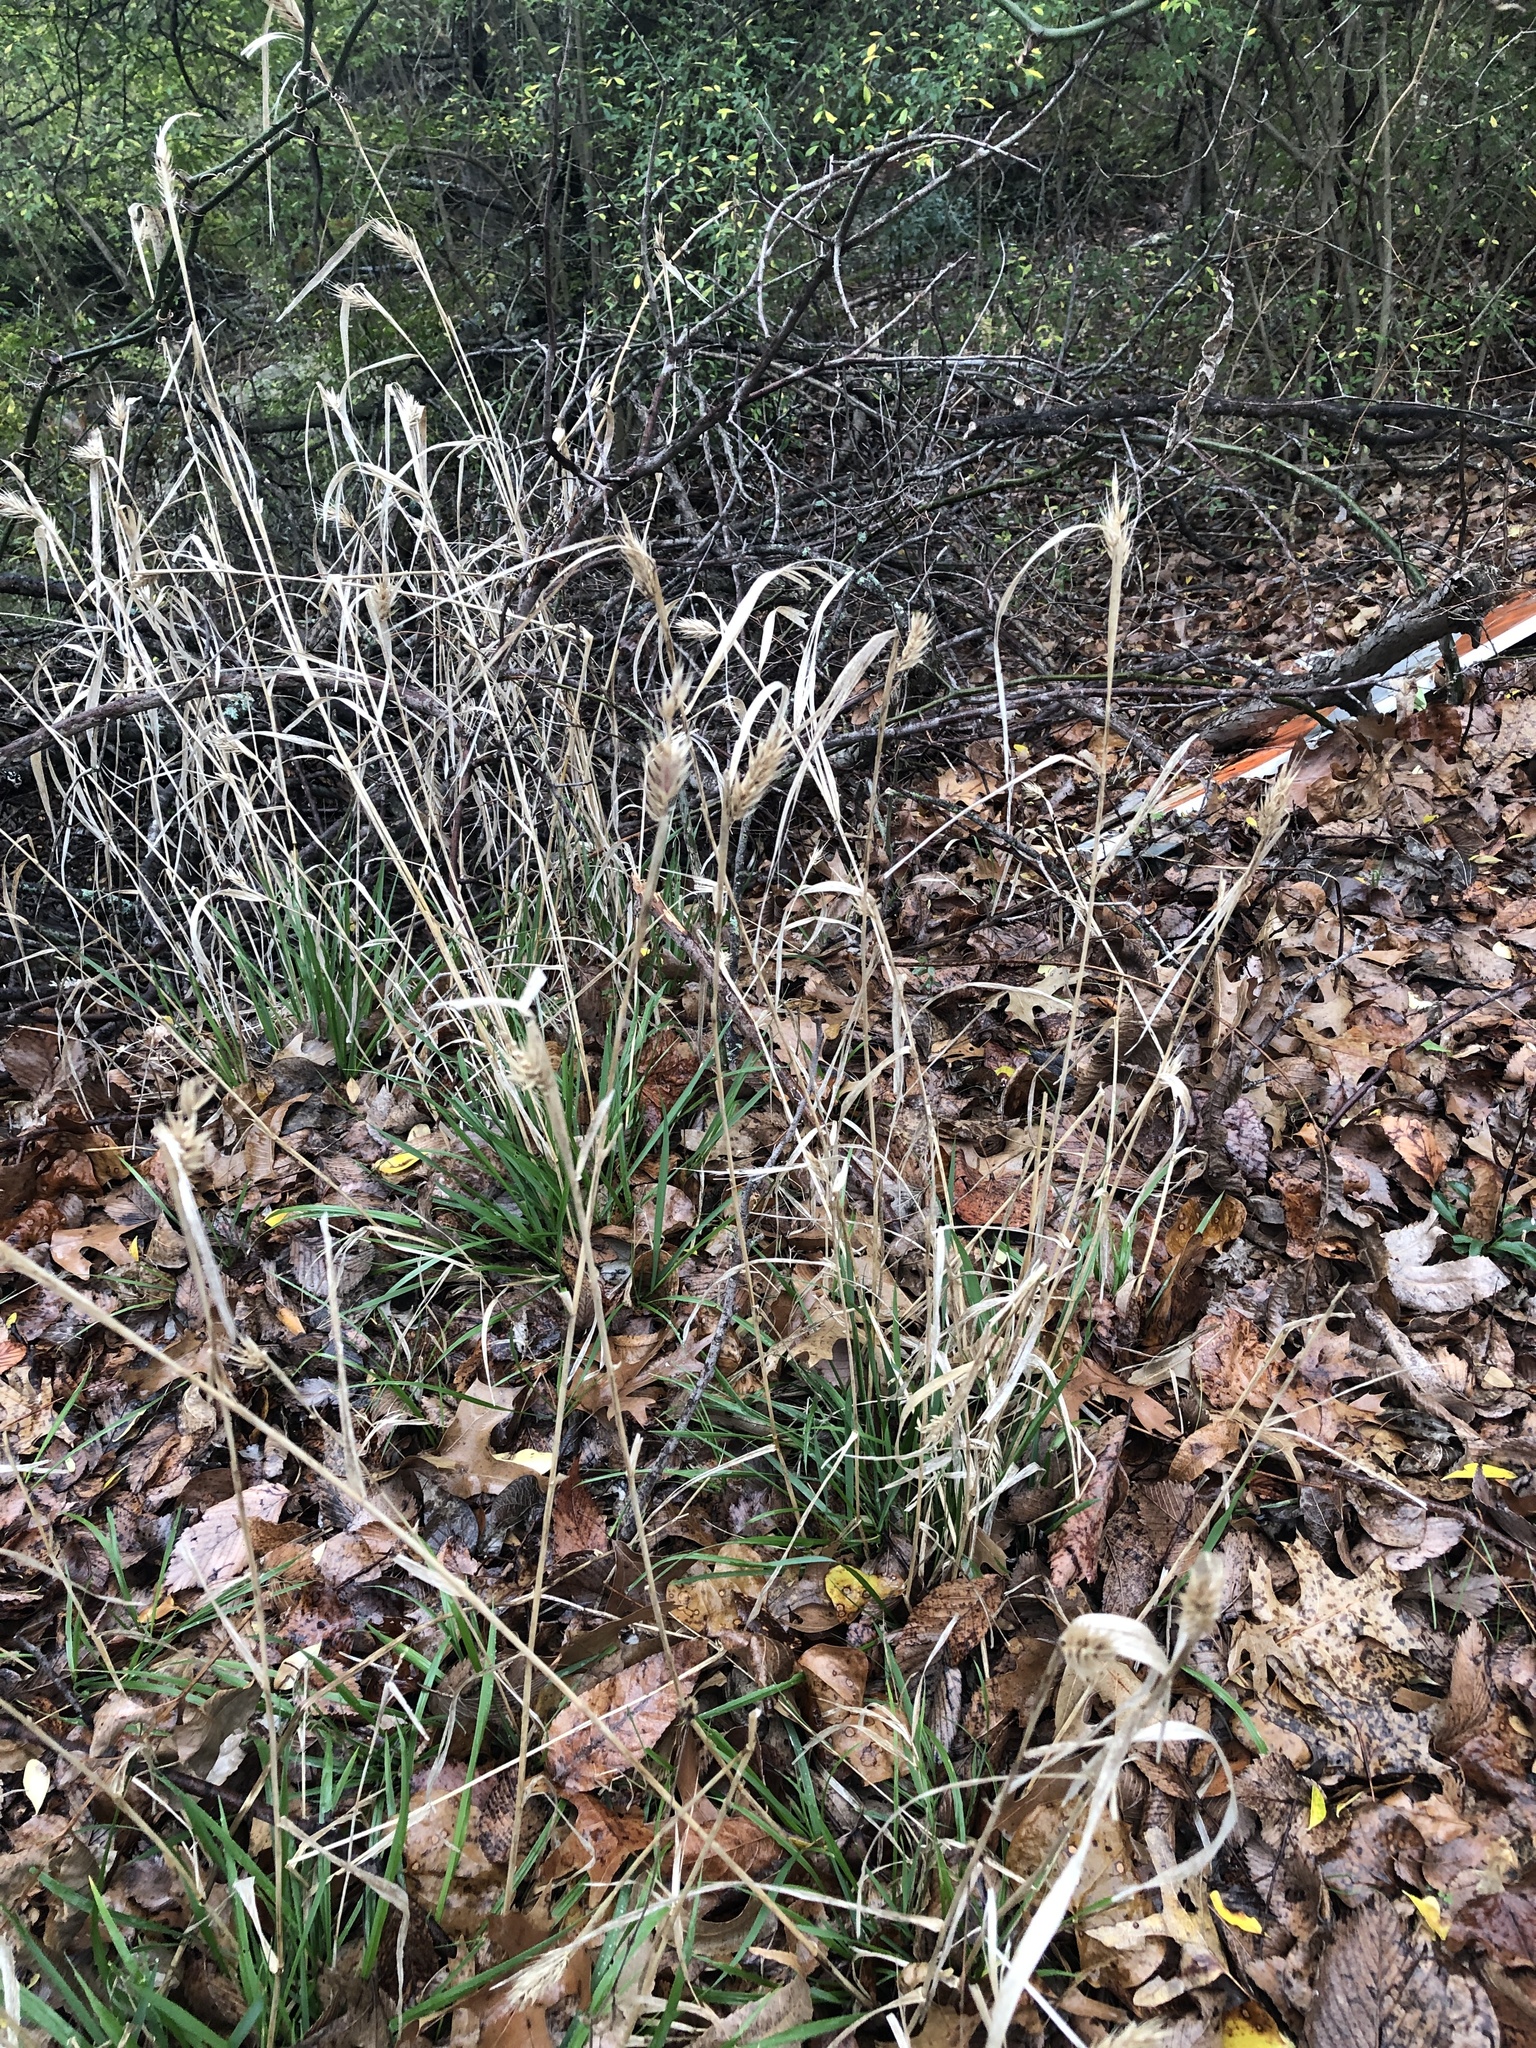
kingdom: Plantae
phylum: Tracheophyta
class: Liliopsida
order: Poales
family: Poaceae
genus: Elymus
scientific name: Elymus virginicus
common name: Common eastern wildrye
